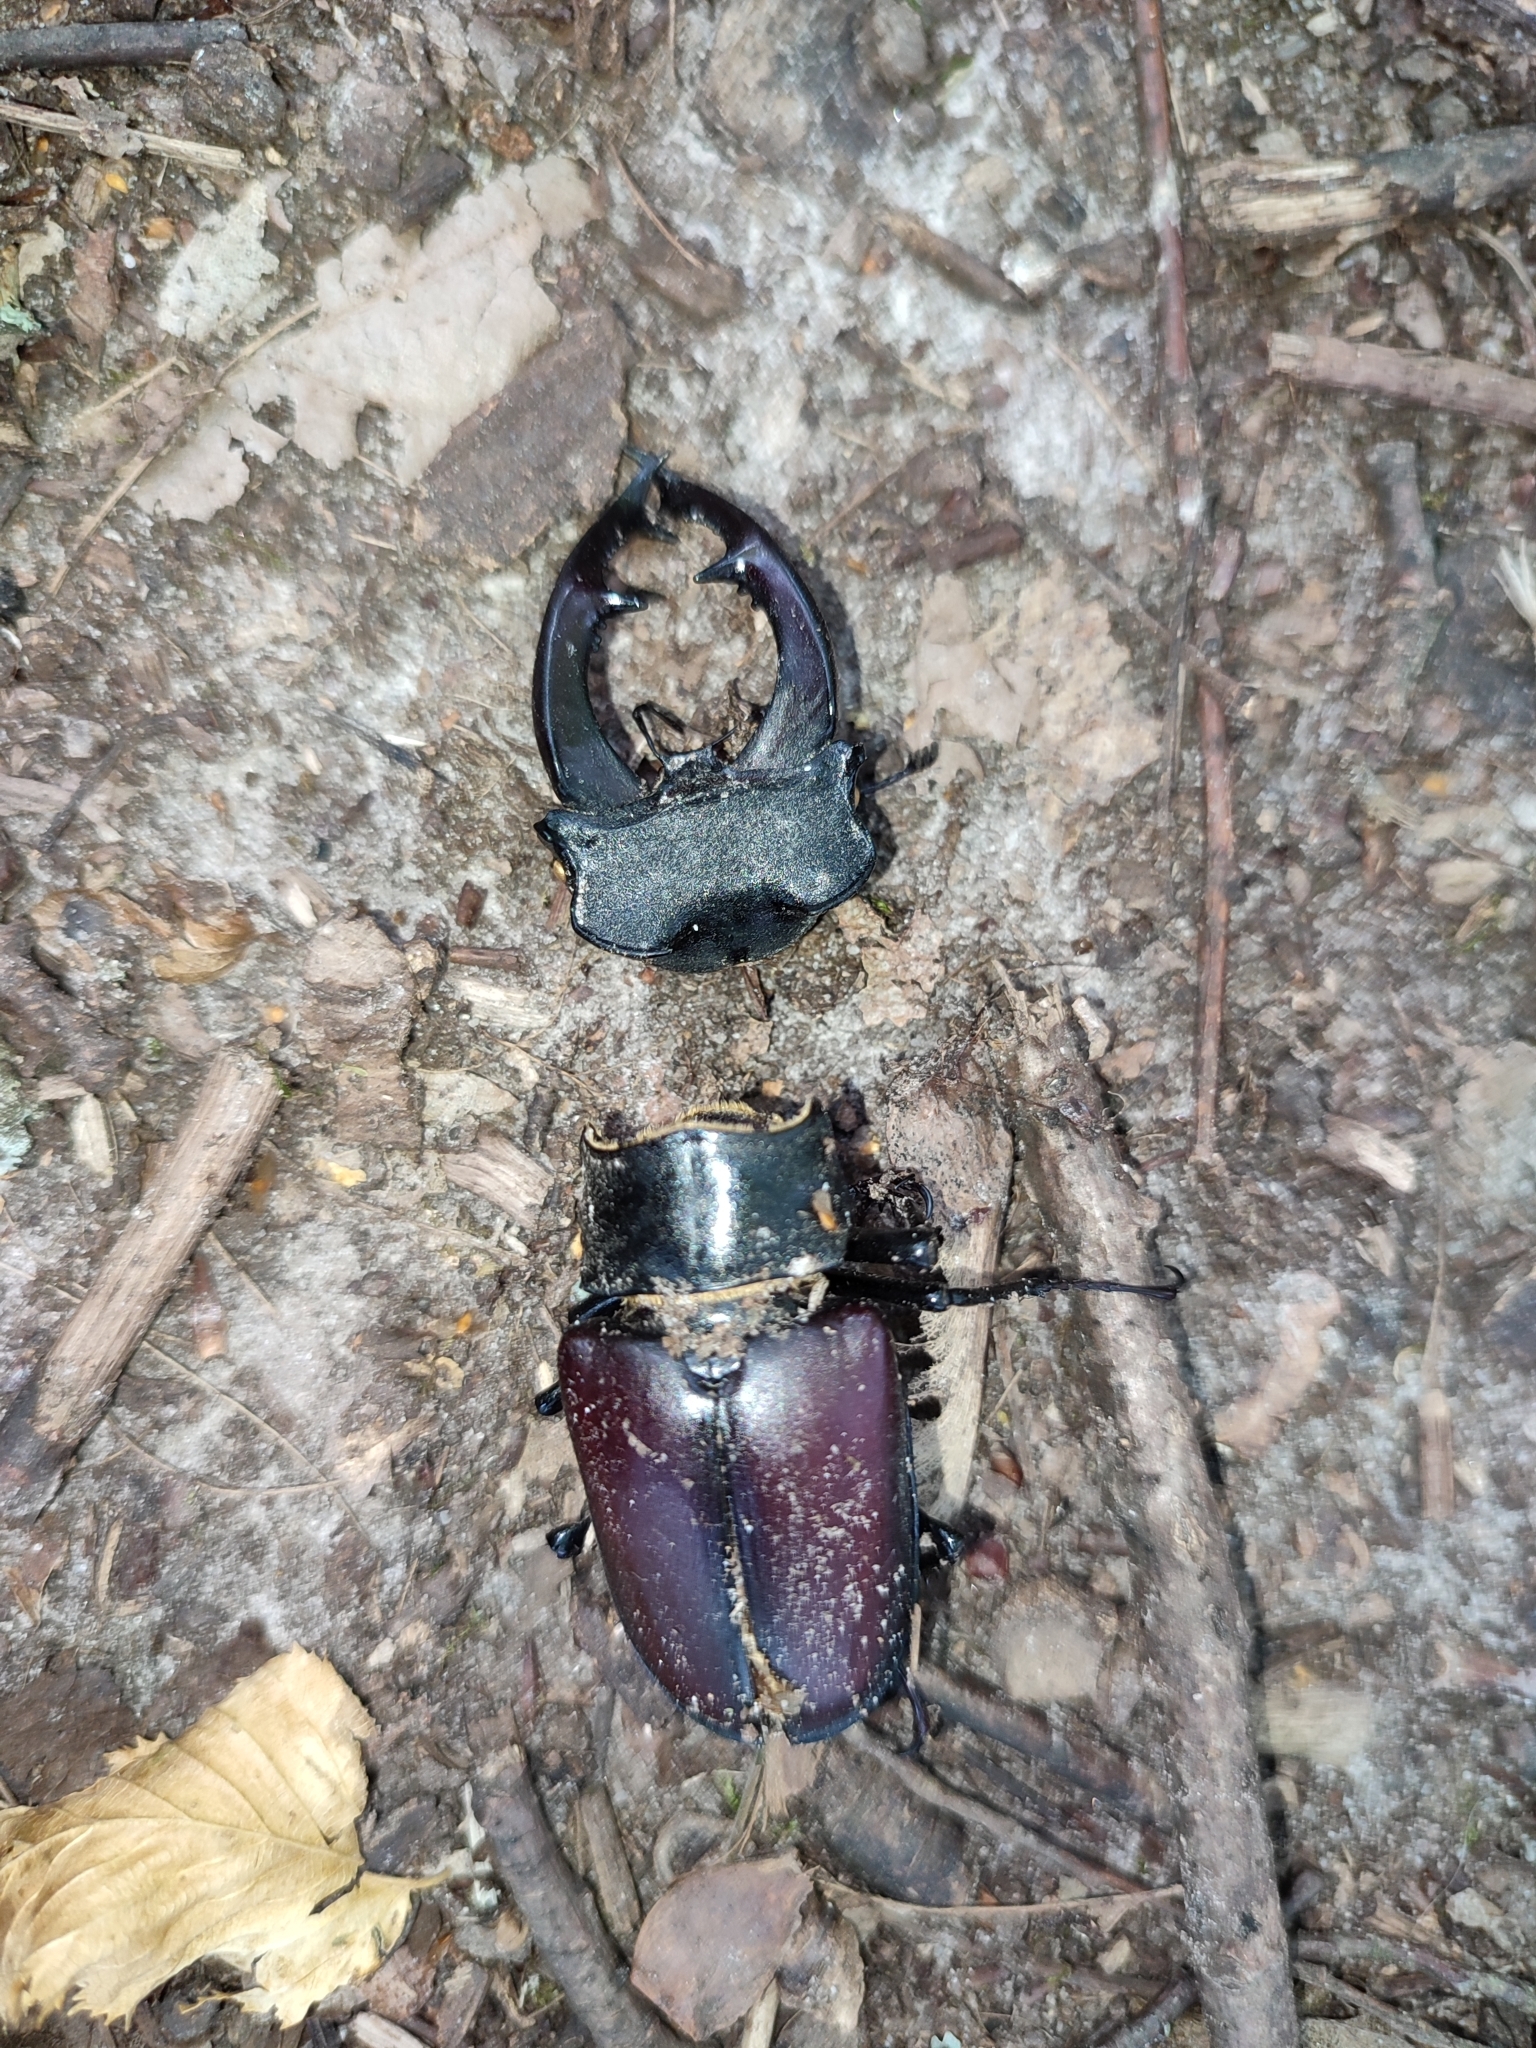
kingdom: Animalia
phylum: Arthropoda
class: Insecta
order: Coleoptera
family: Lucanidae
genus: Lucanus
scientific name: Lucanus cervus
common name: Stag beetle
